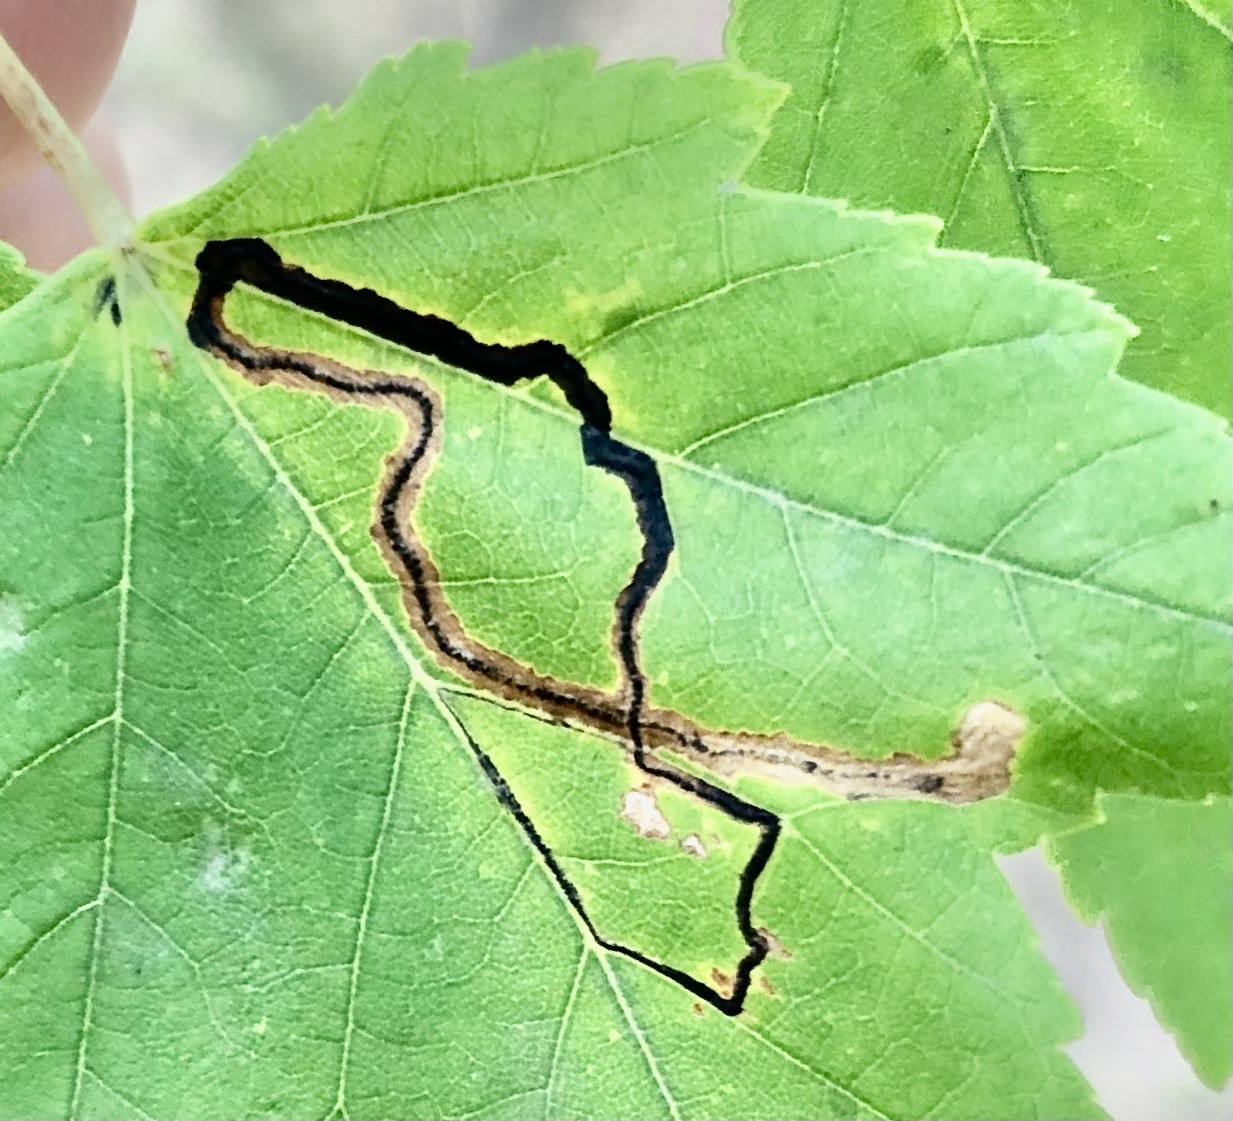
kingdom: Animalia
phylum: Arthropoda
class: Insecta
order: Lepidoptera
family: Nepticulidae
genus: Glaucolepis
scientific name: Glaucolepis saccharella
